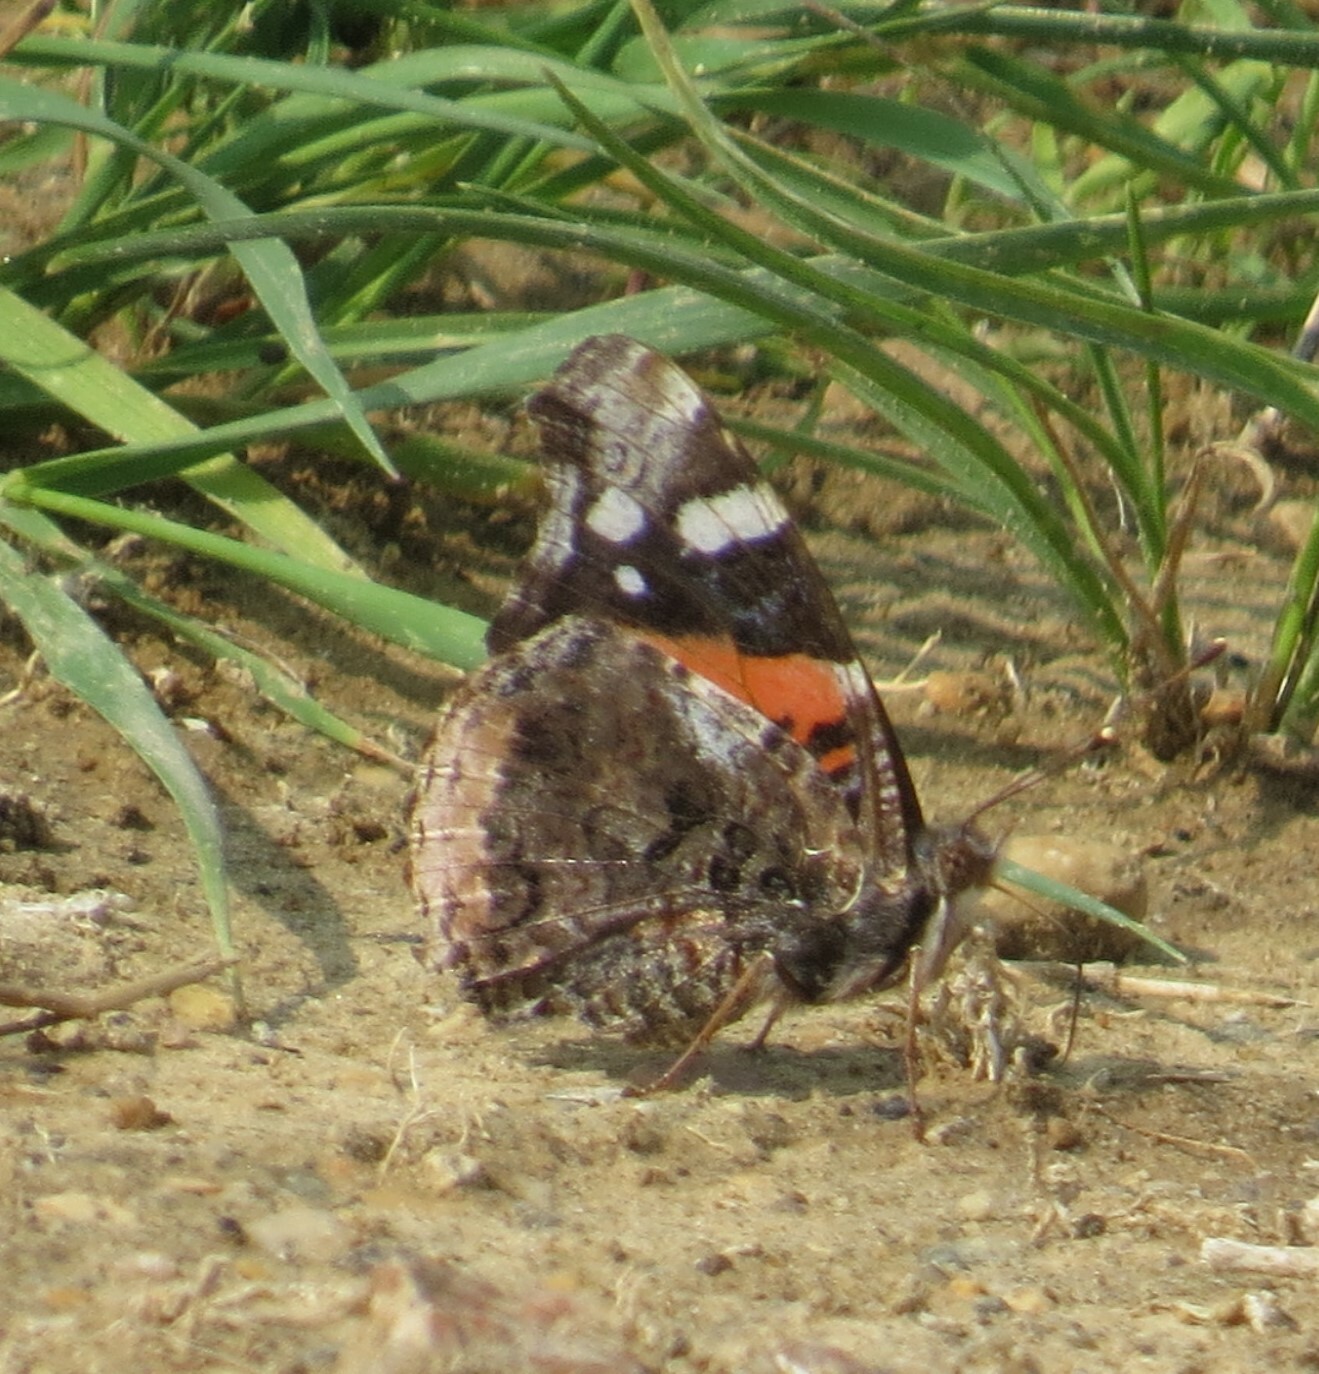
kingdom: Animalia
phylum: Arthropoda
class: Insecta
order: Lepidoptera
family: Nymphalidae
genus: Vanessa
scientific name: Vanessa atalanta
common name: Red admiral
